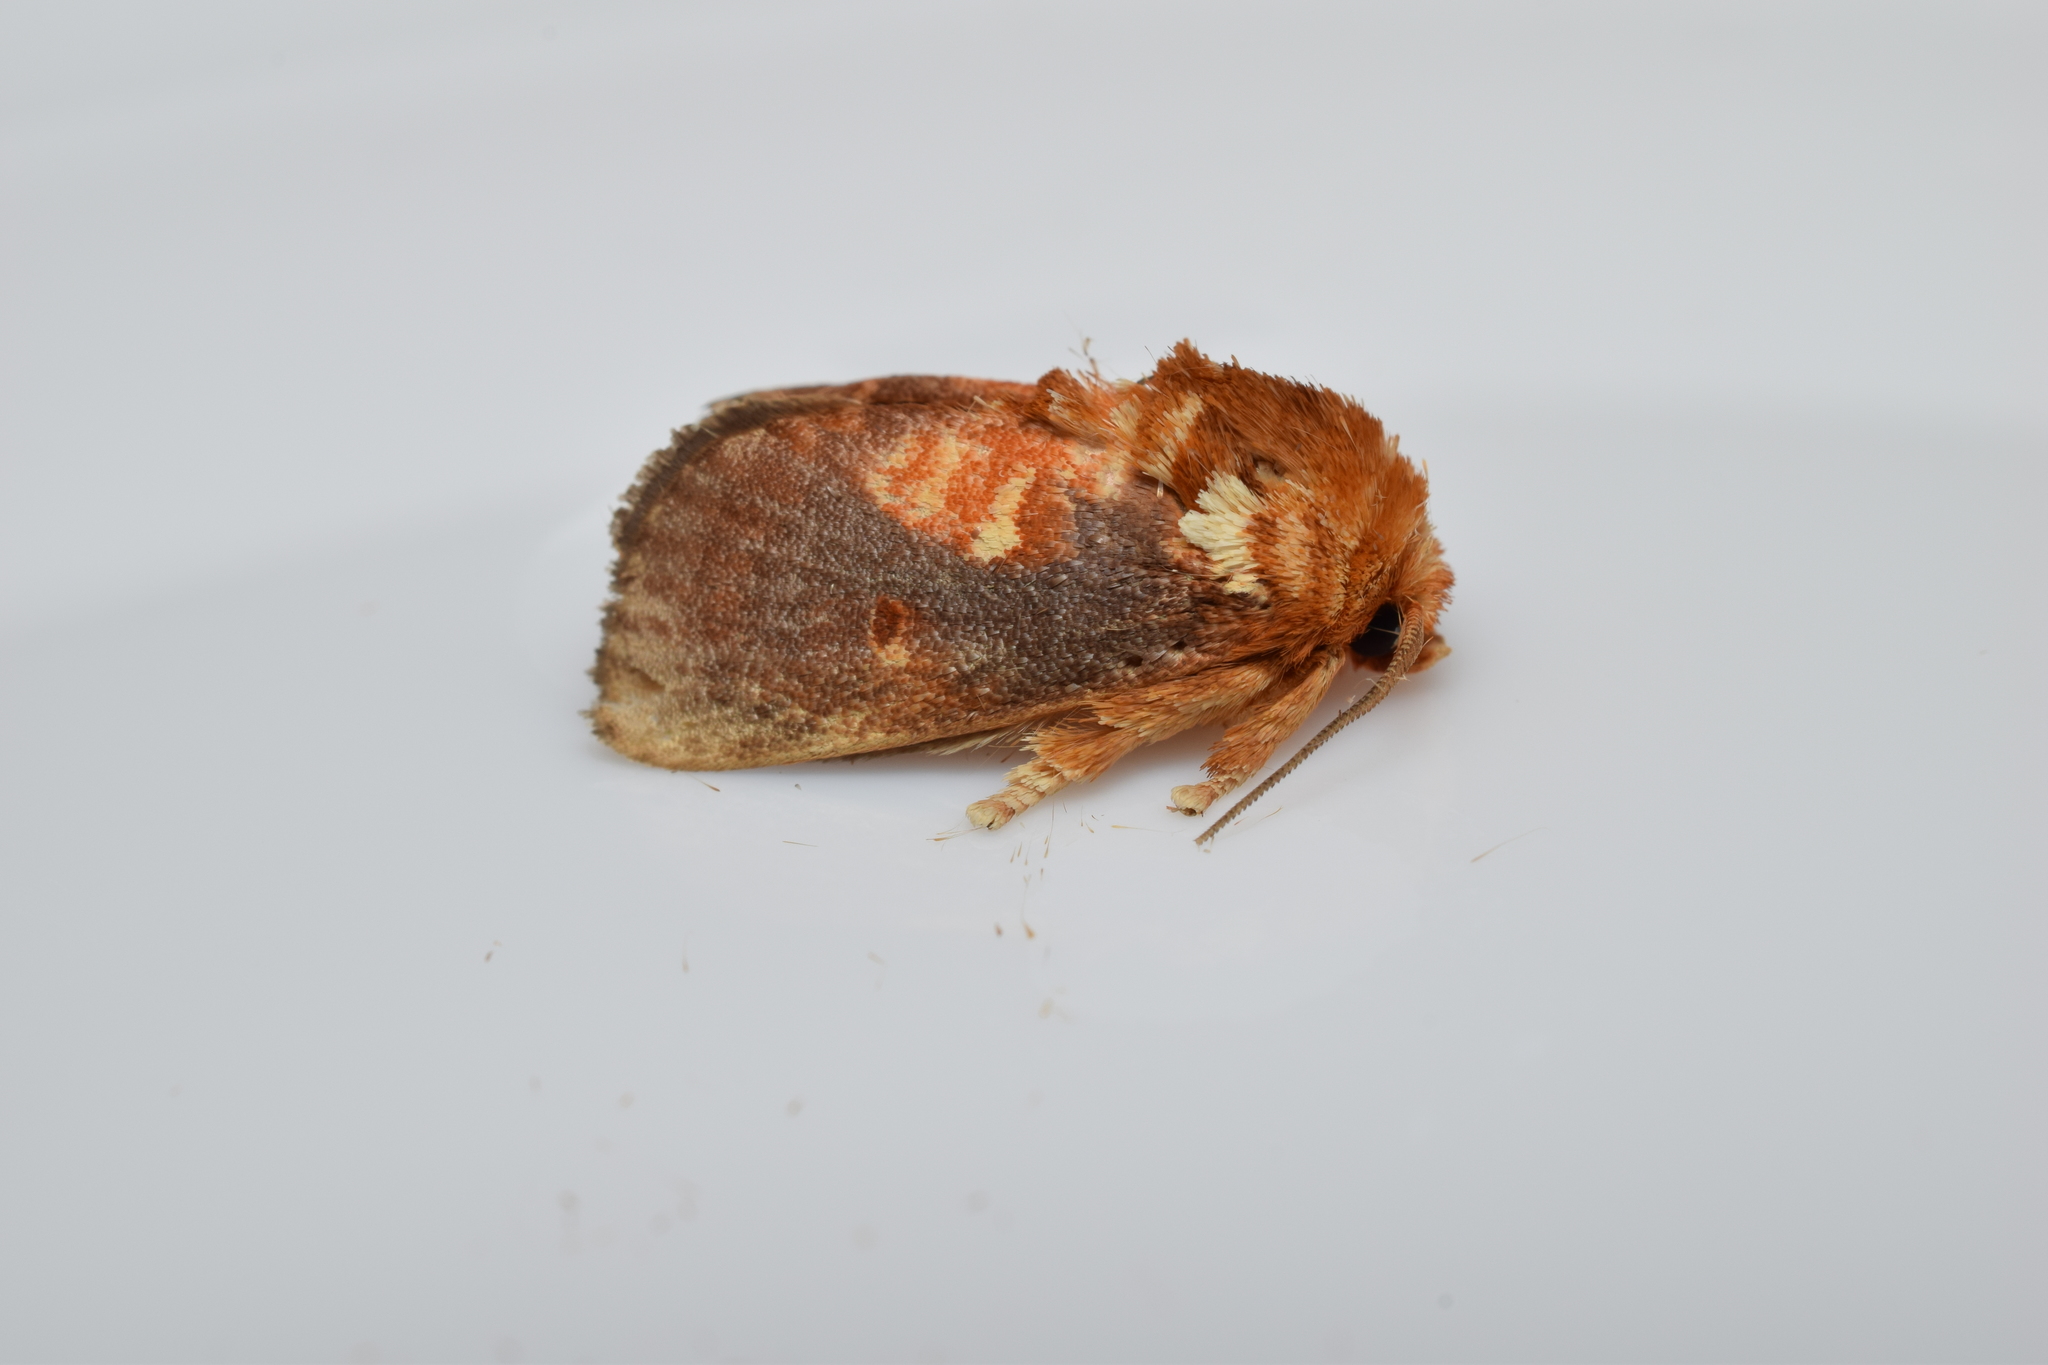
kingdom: Animalia
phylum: Arthropoda
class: Insecta
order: Lepidoptera
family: Limacodidae
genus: Demonarosa
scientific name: Demonarosa rufotessellata
